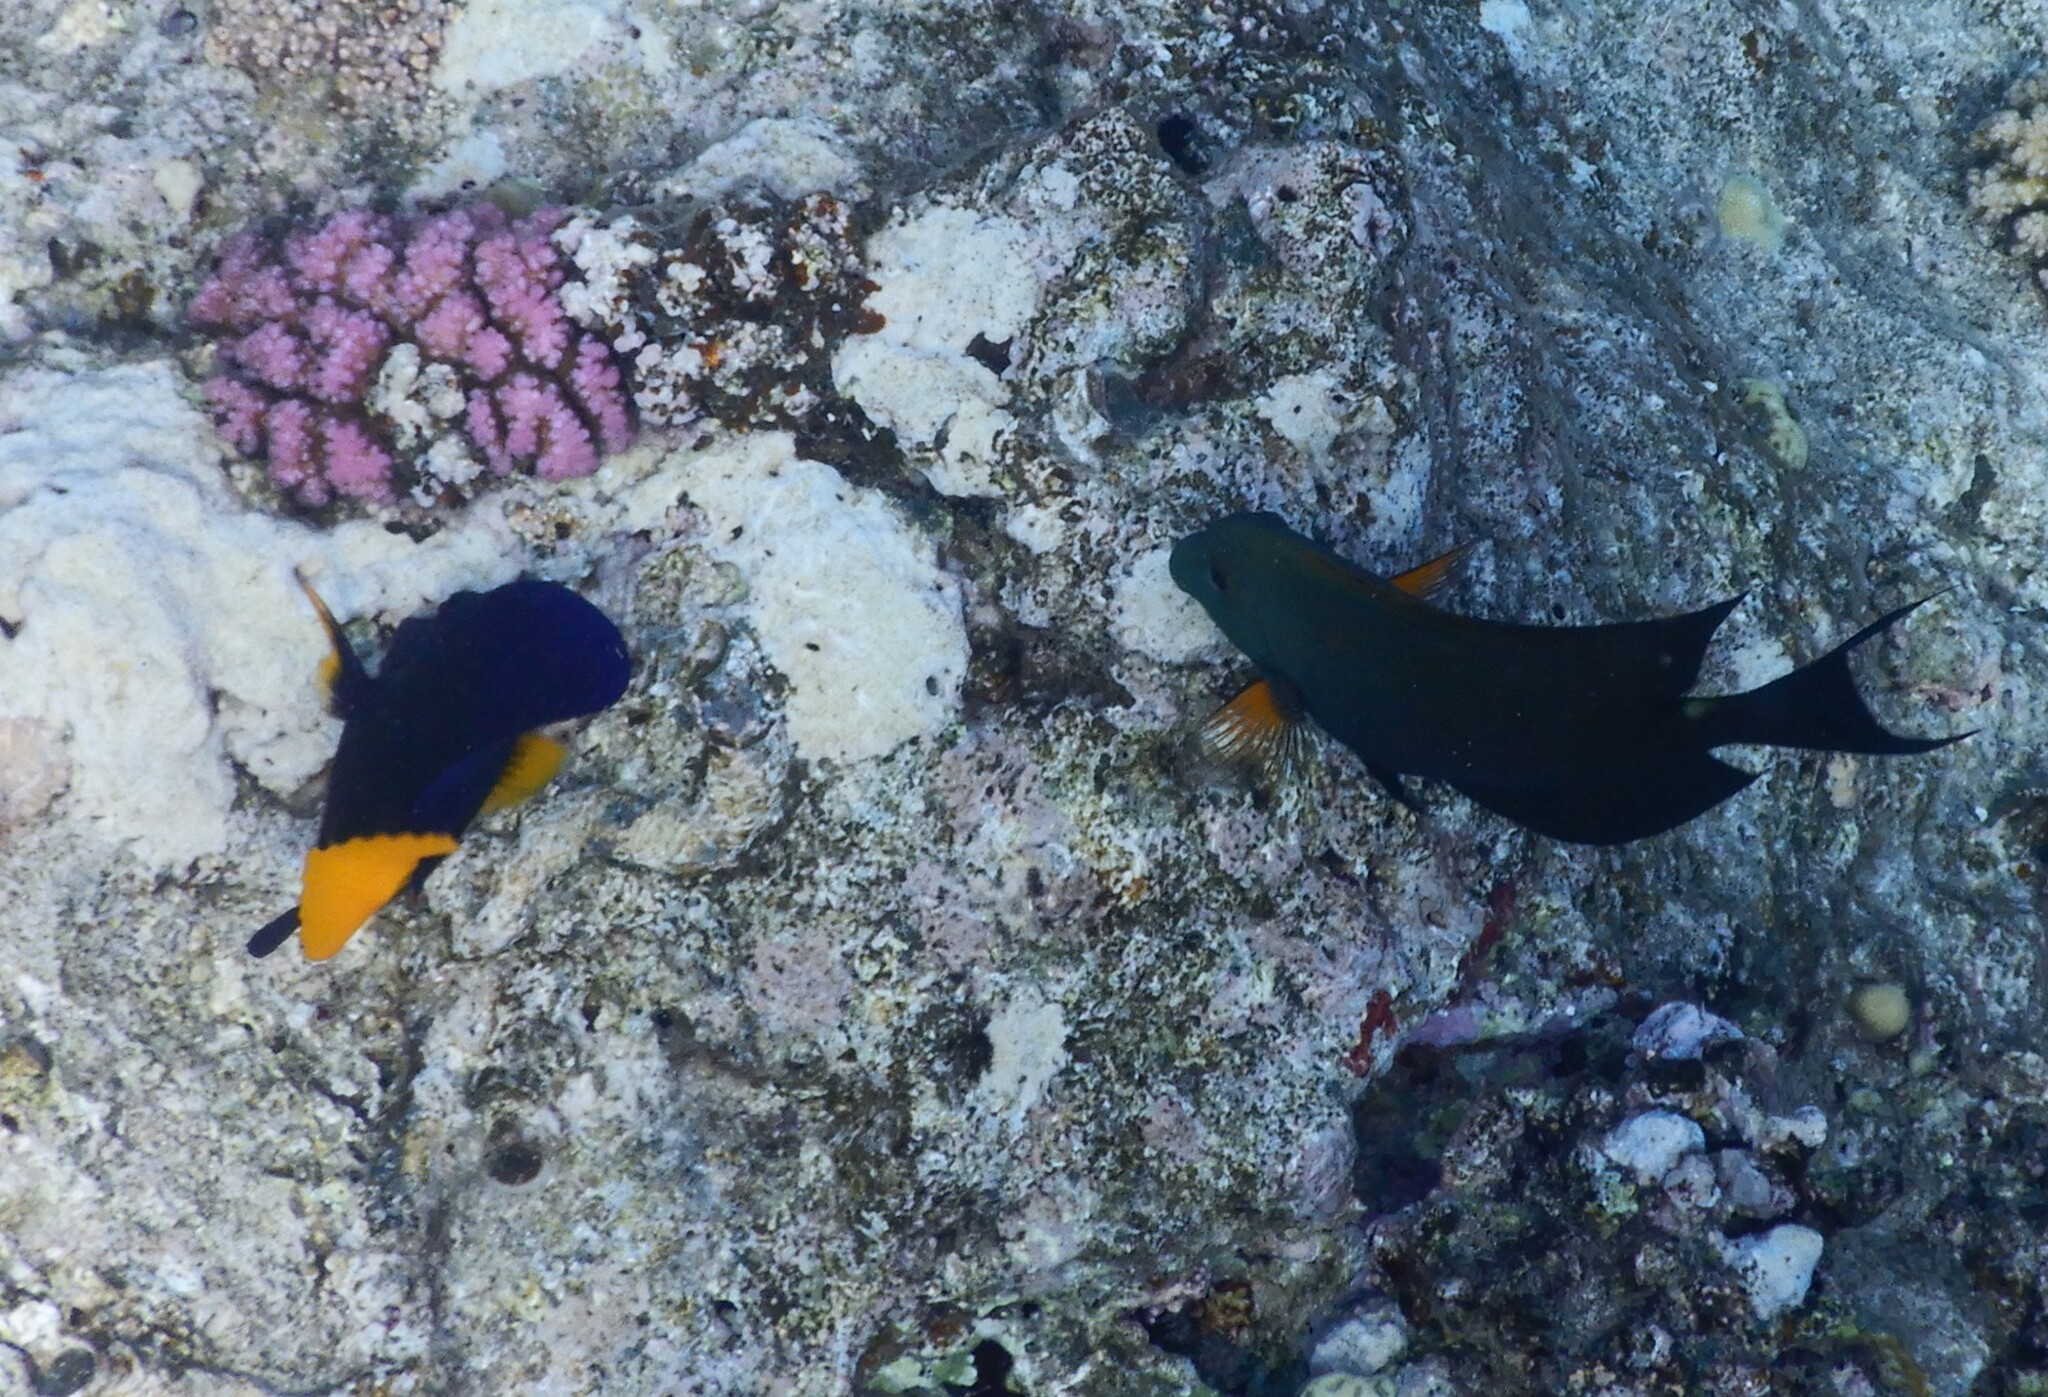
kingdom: Animalia
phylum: Chordata
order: Perciformes
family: Acanthuridae
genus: Zebrasoma
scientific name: Zebrasoma xanthurum
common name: Purple tang
